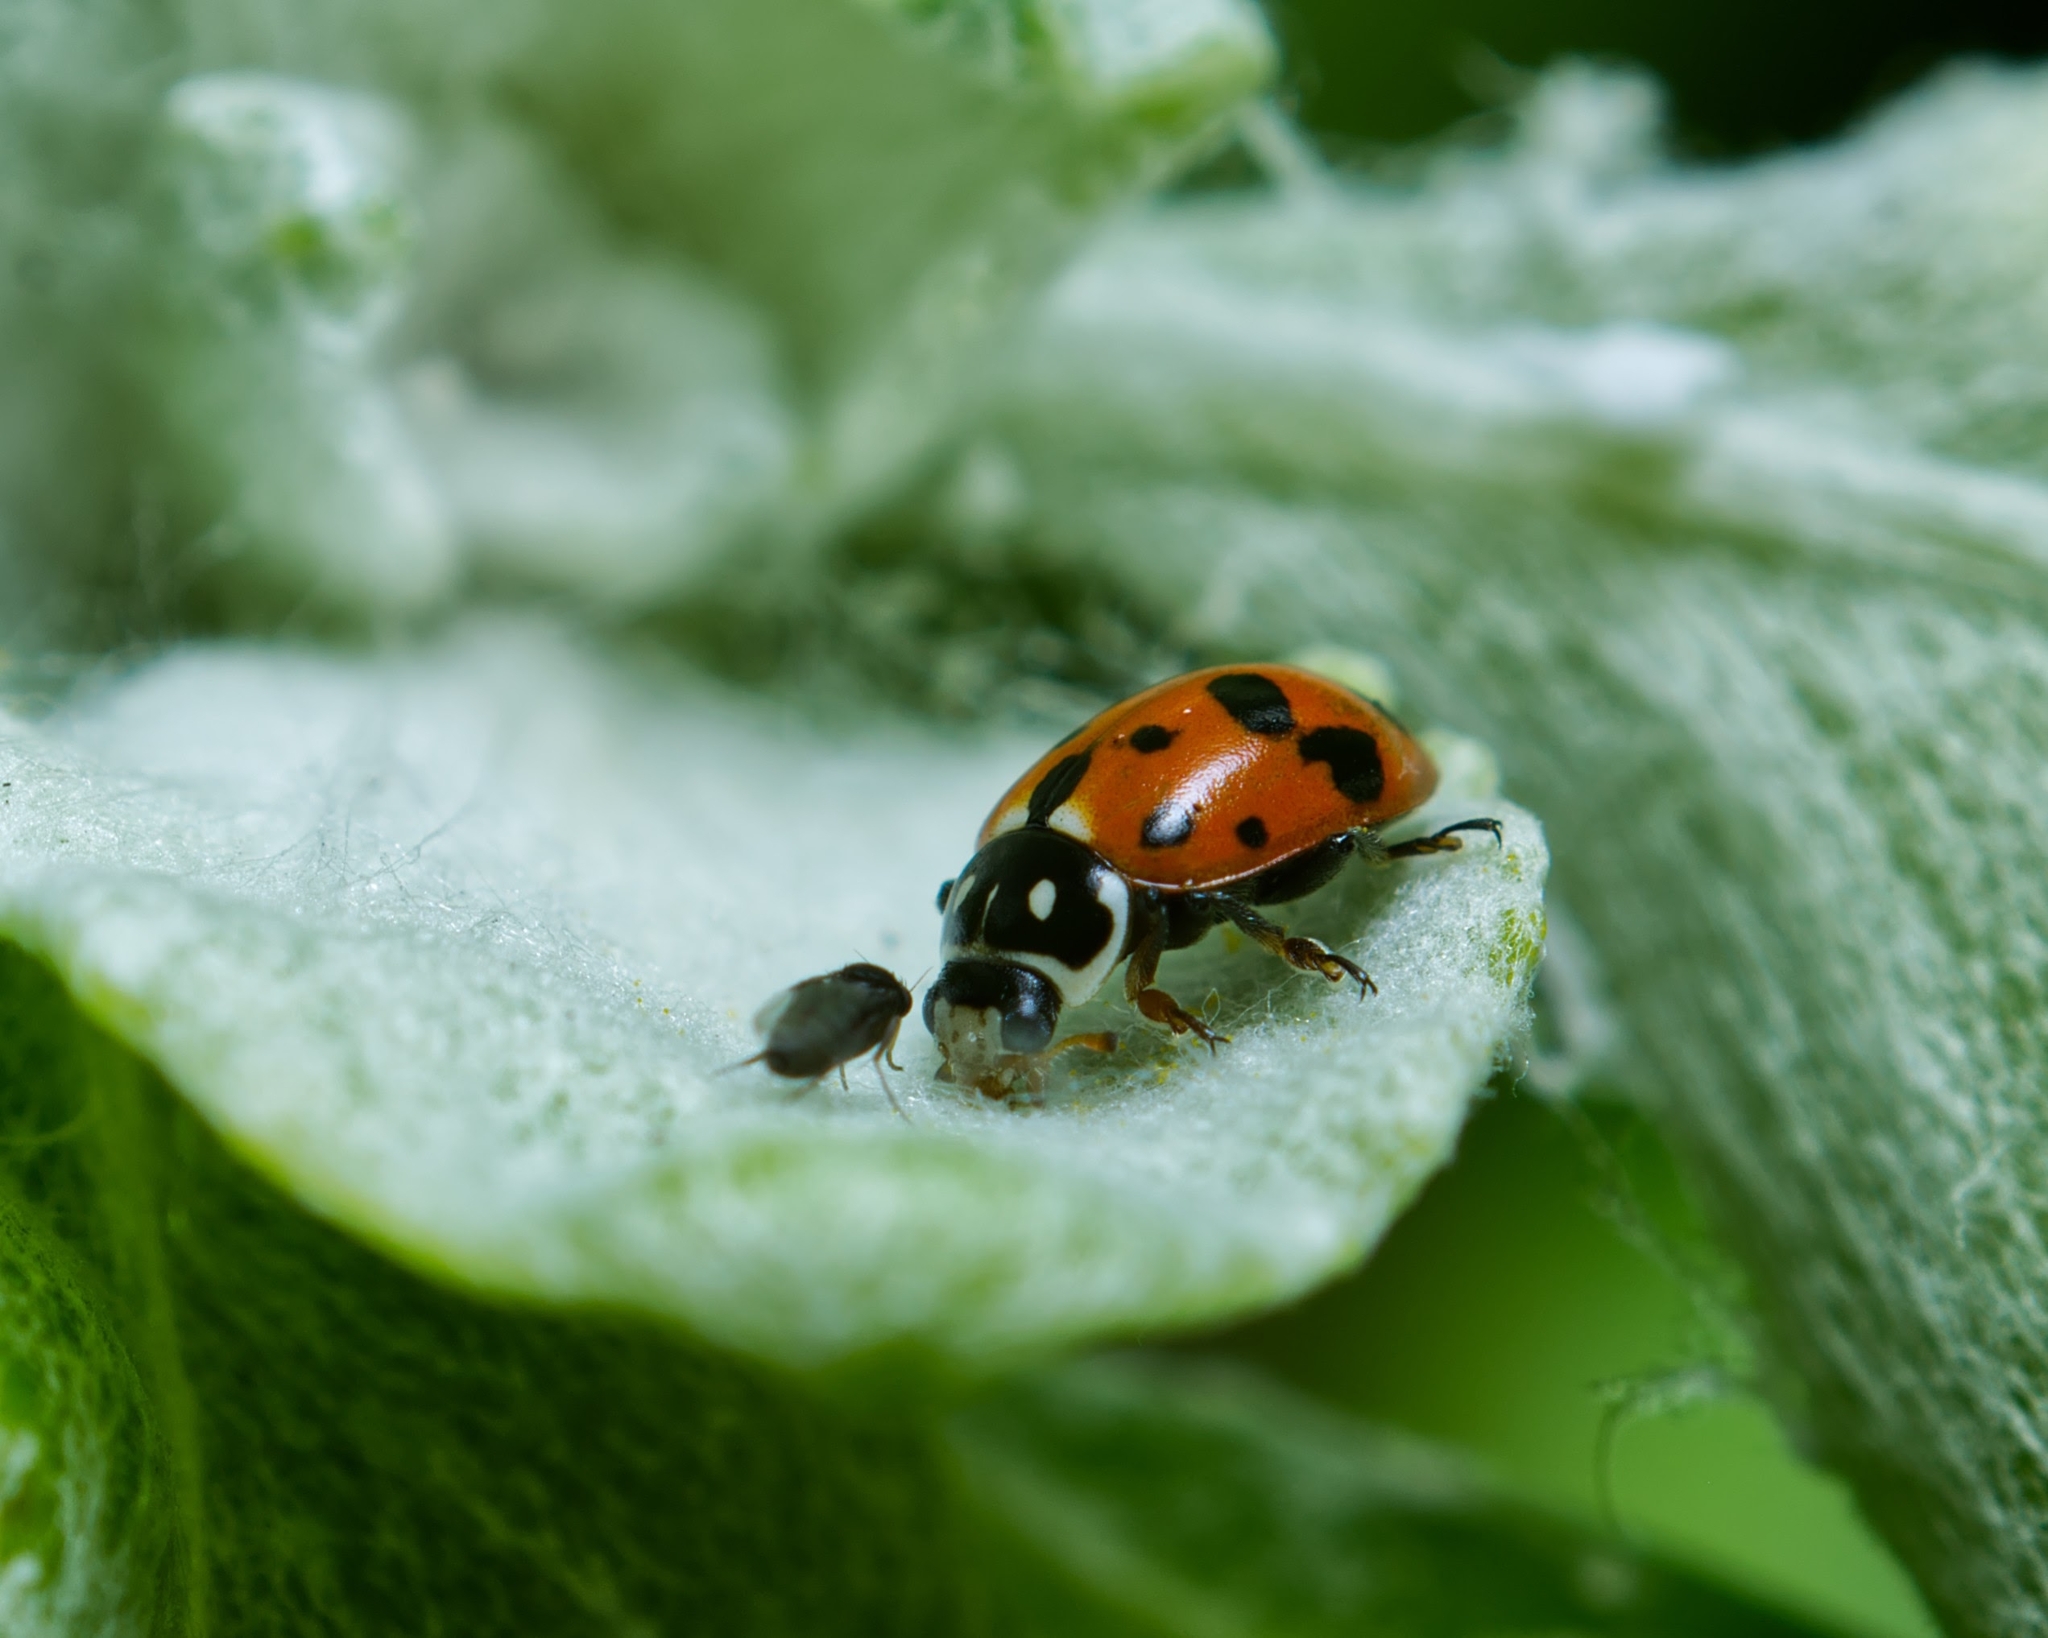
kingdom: Animalia
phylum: Arthropoda
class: Insecta
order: Coleoptera
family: Coccinellidae
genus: Hippodamia
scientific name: Hippodamia variegata
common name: Ladybird beetle
